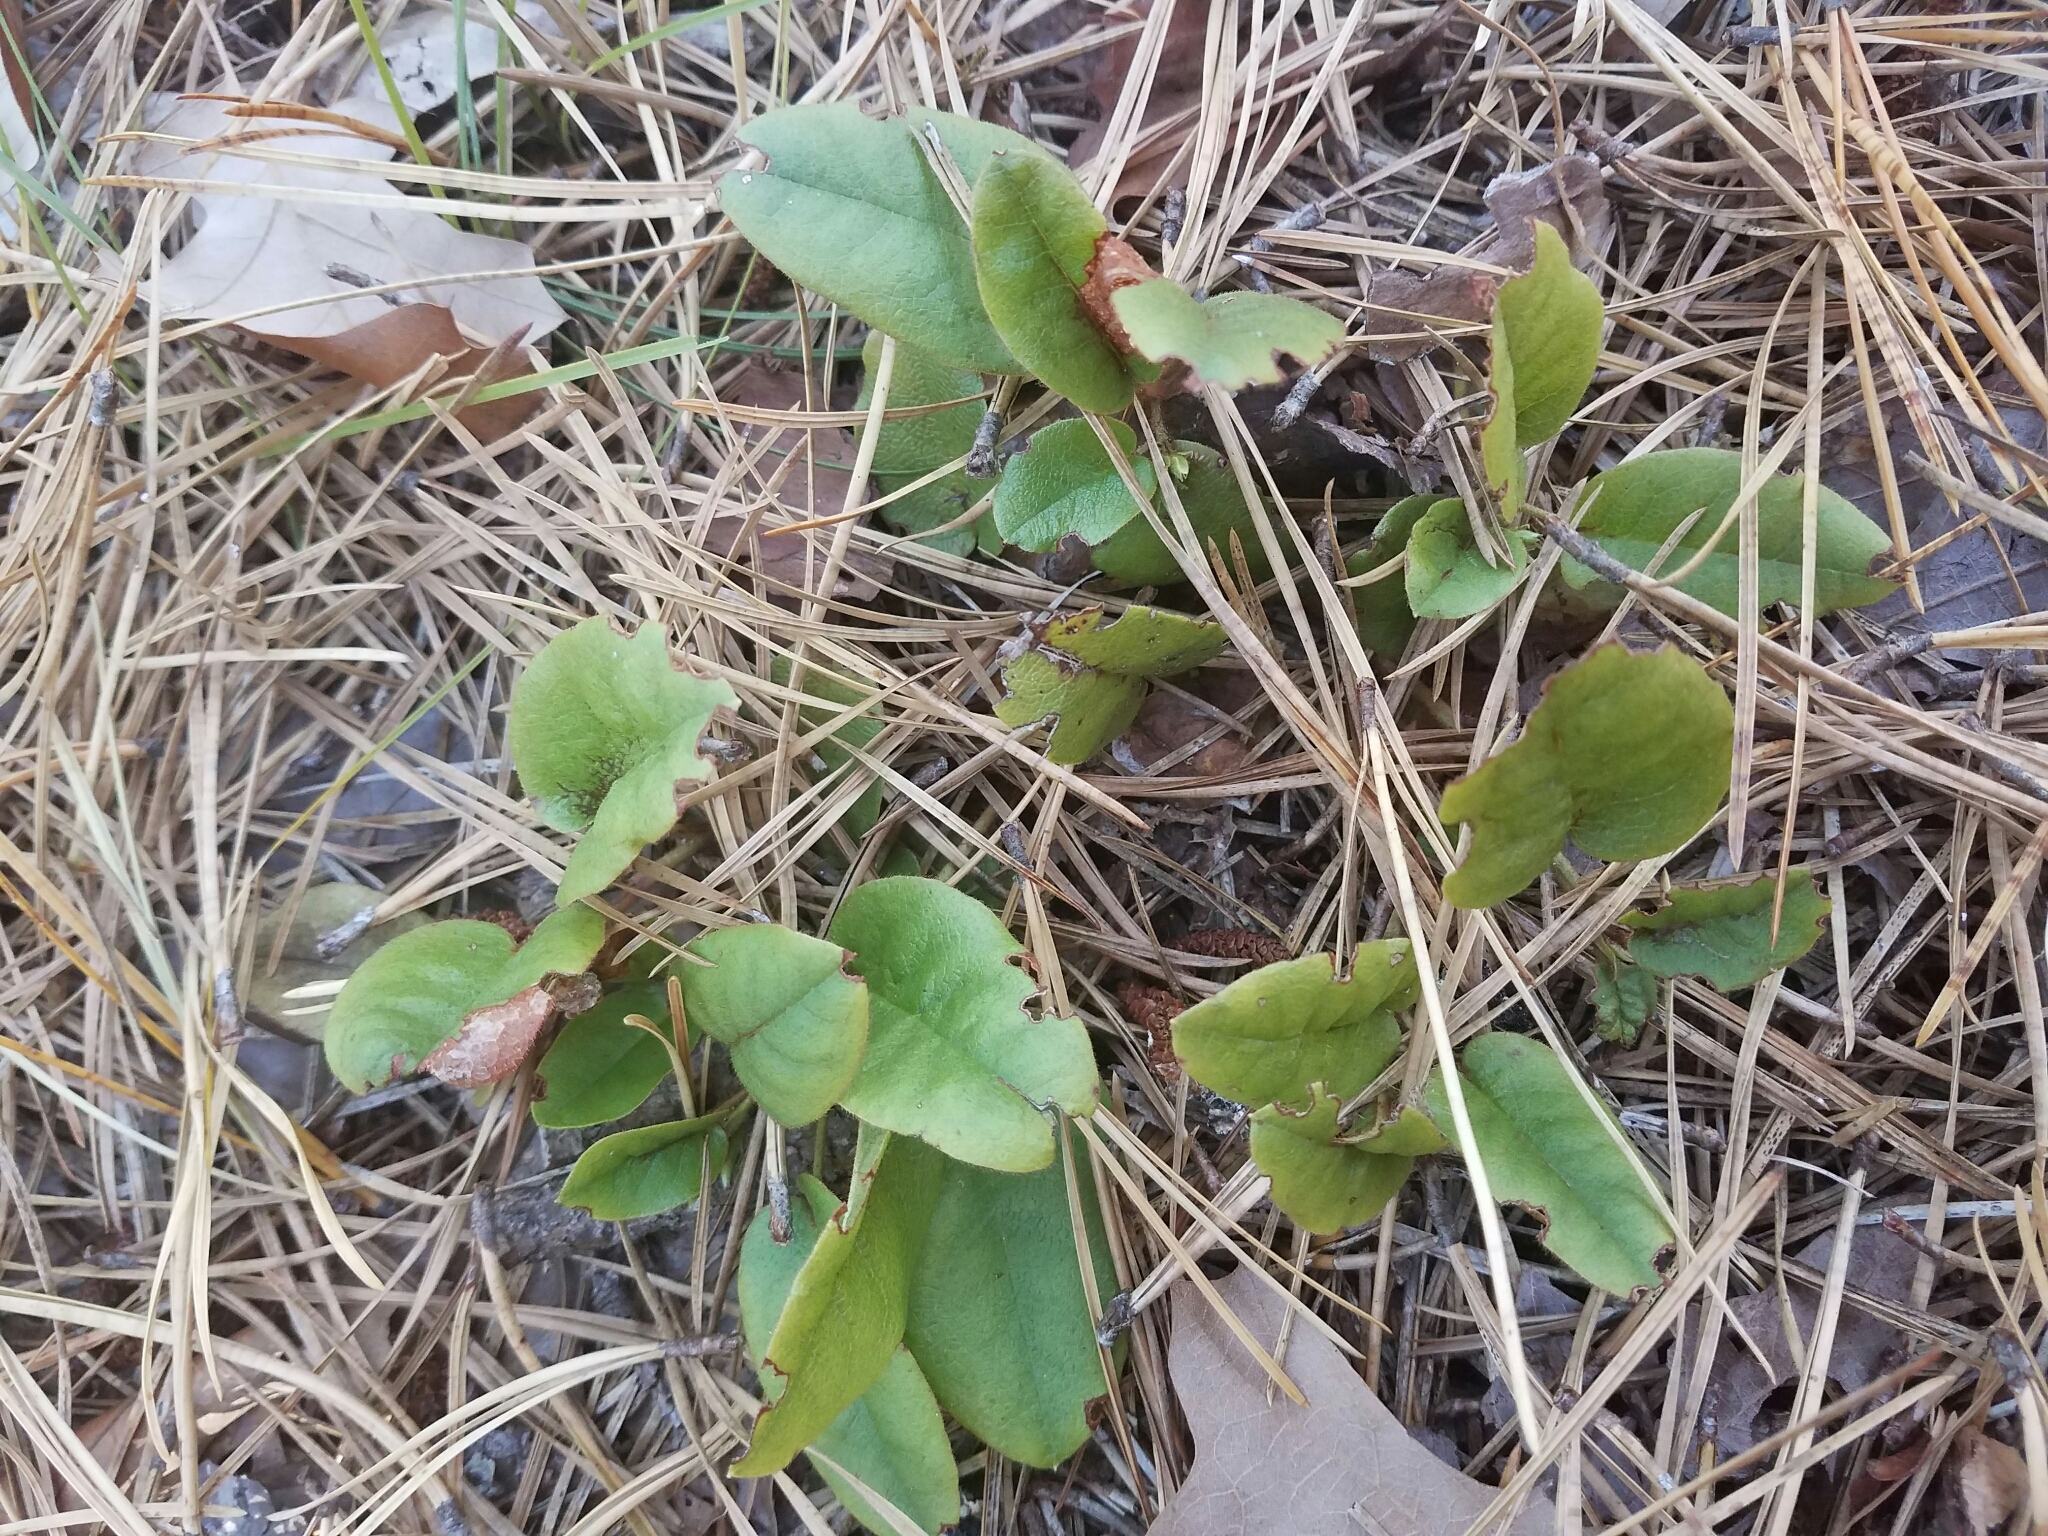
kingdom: Plantae
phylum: Tracheophyta
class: Magnoliopsida
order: Ericales
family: Ericaceae
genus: Epigaea
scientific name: Epigaea repens
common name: Gravelroot
